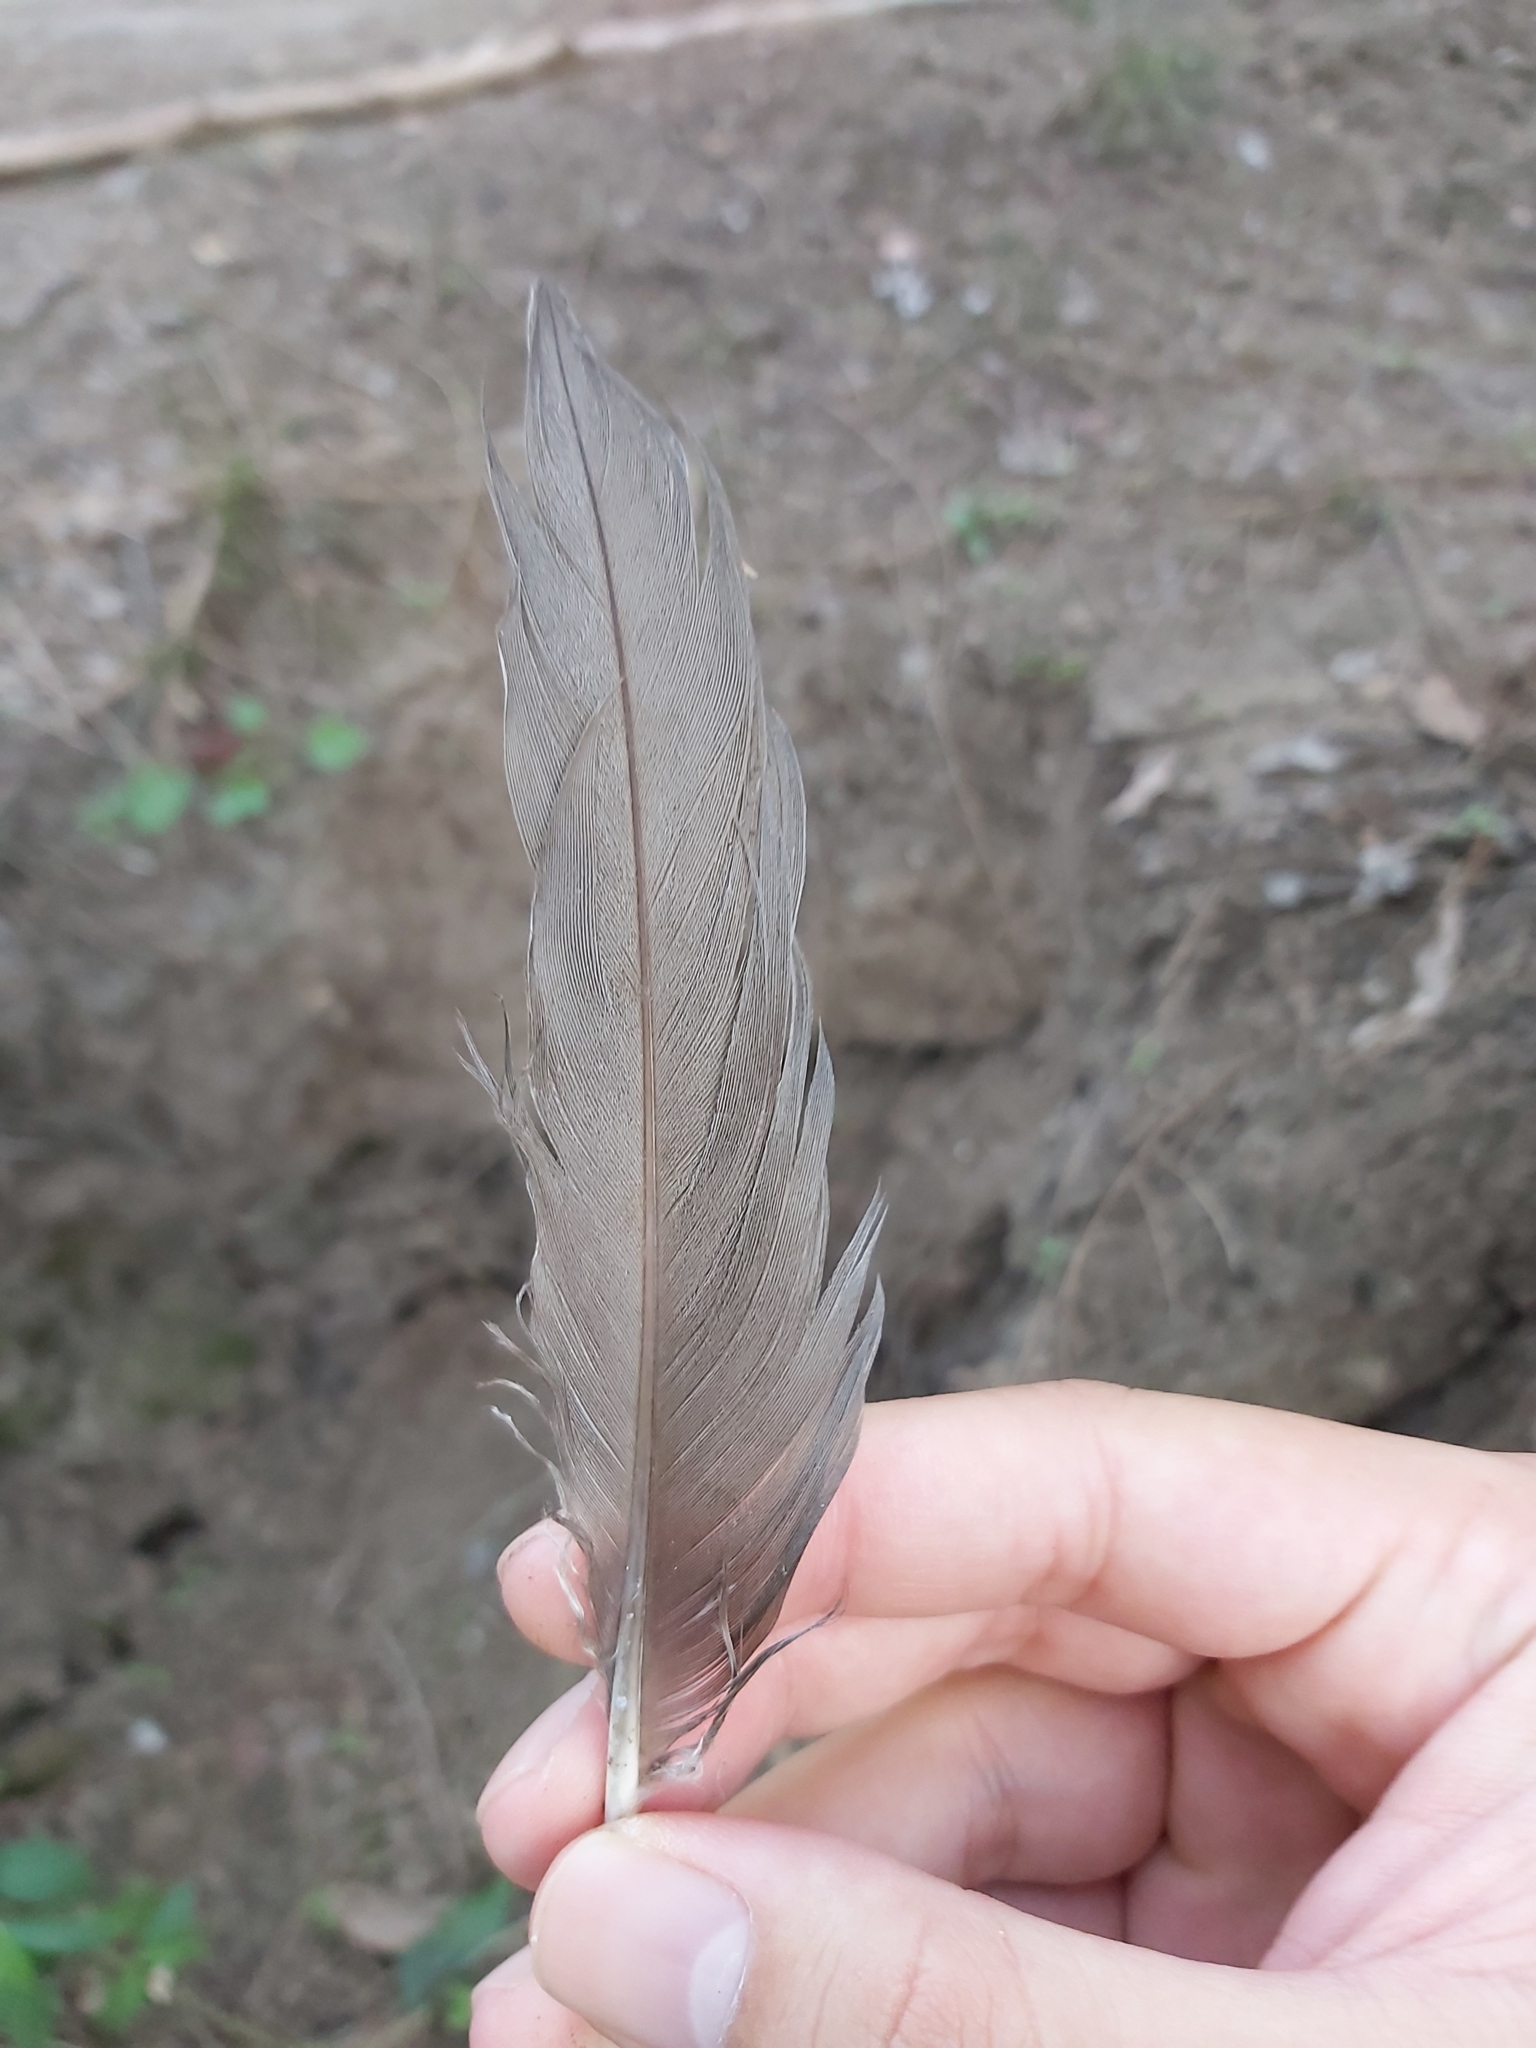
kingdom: Animalia
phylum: Chordata
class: Aves
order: Anseriformes
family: Anatidae
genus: Chenonetta
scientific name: Chenonetta jubata
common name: Maned duck
